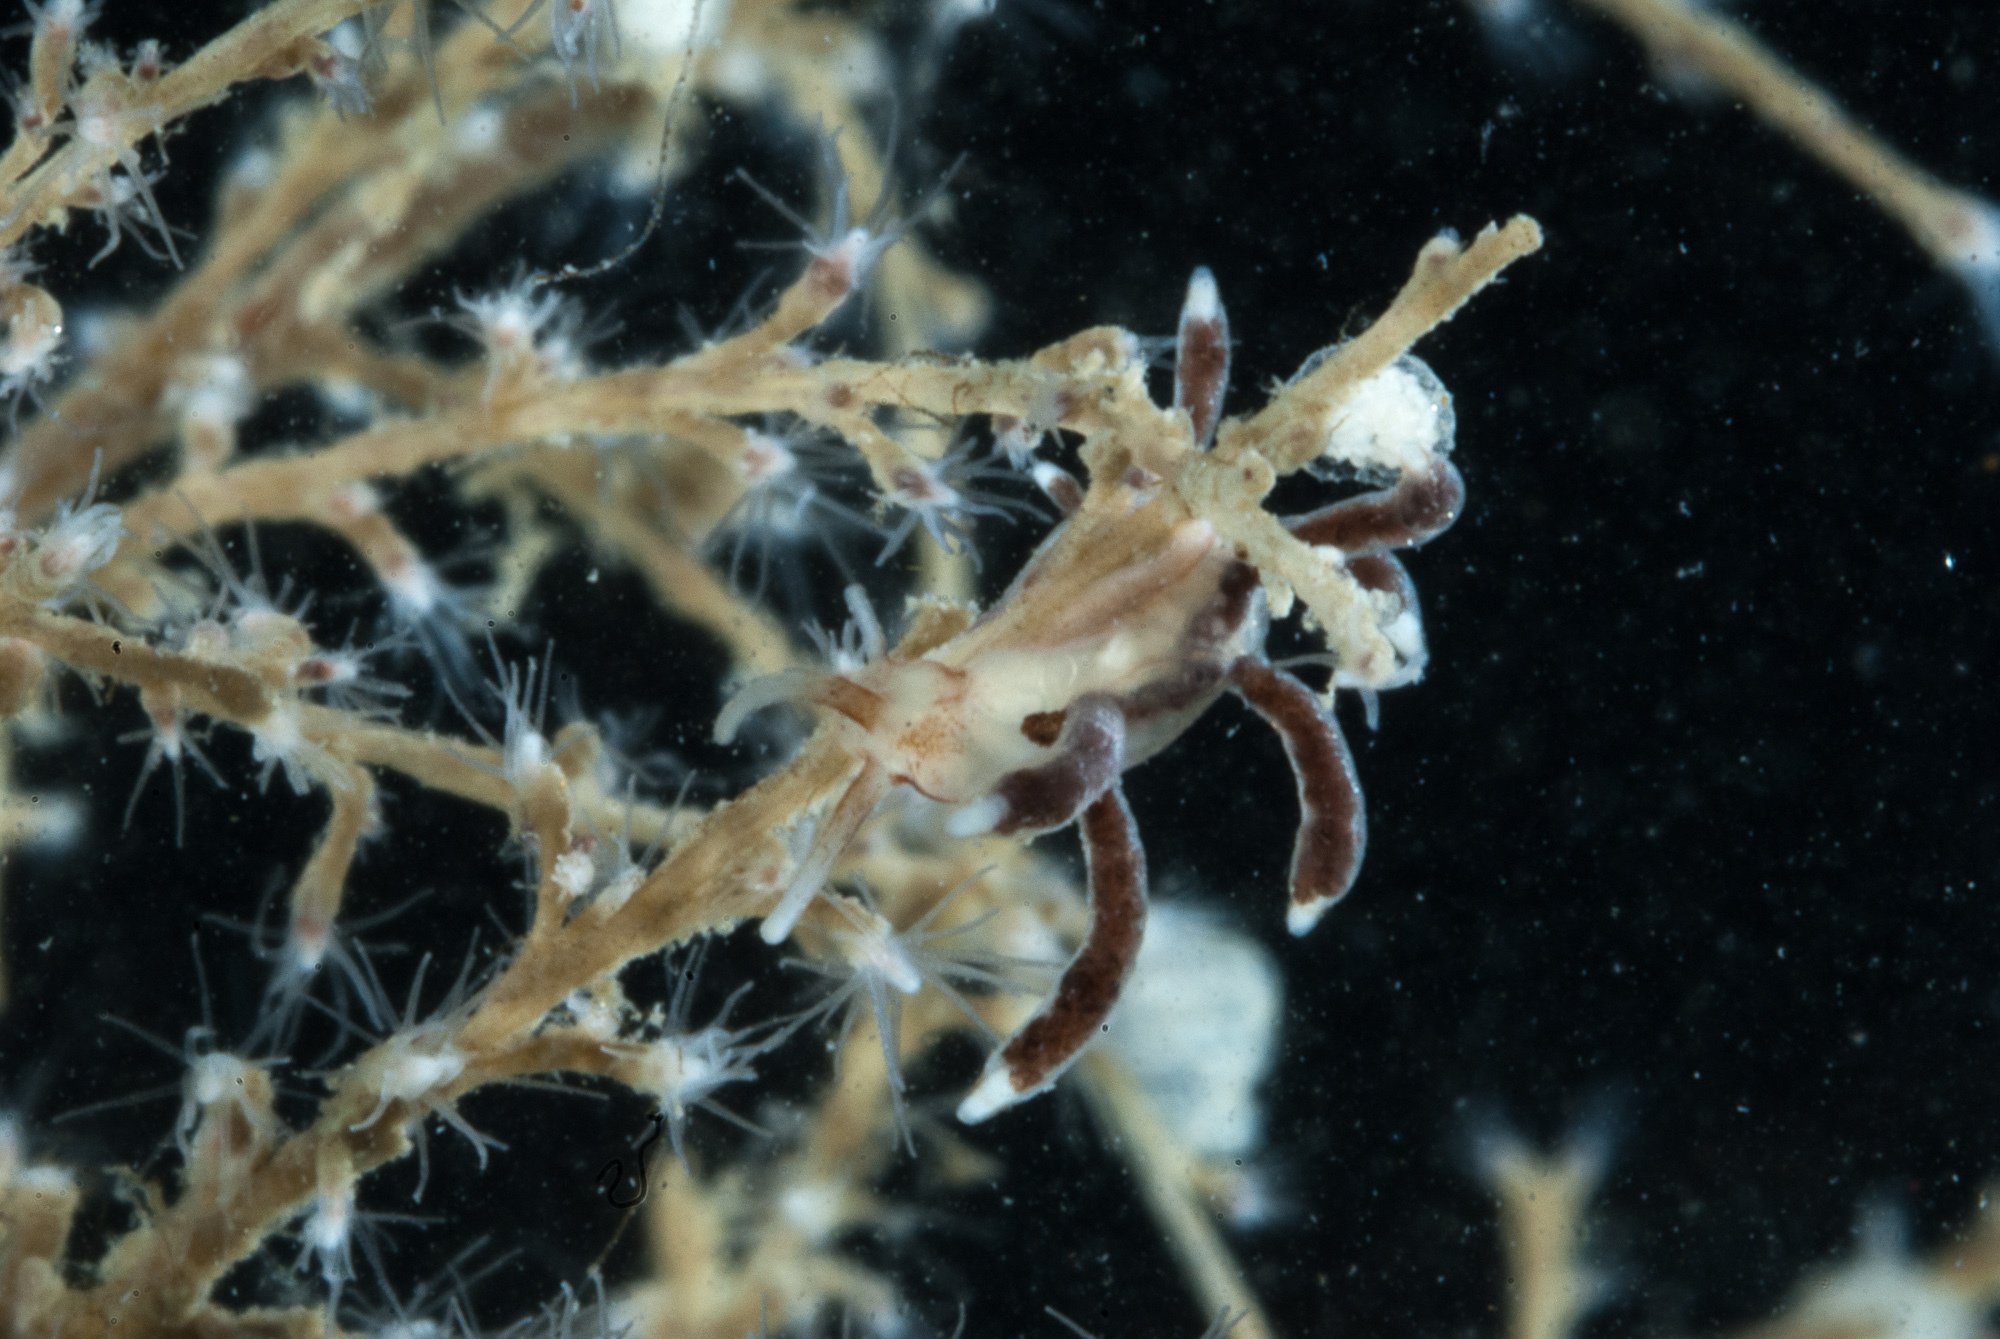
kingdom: Animalia
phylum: Mollusca
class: Gastropoda
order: Nudibranchia
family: Tergipedidae
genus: Tergipes
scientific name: Tergipes tergipes
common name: Johnston's balloon eolis
